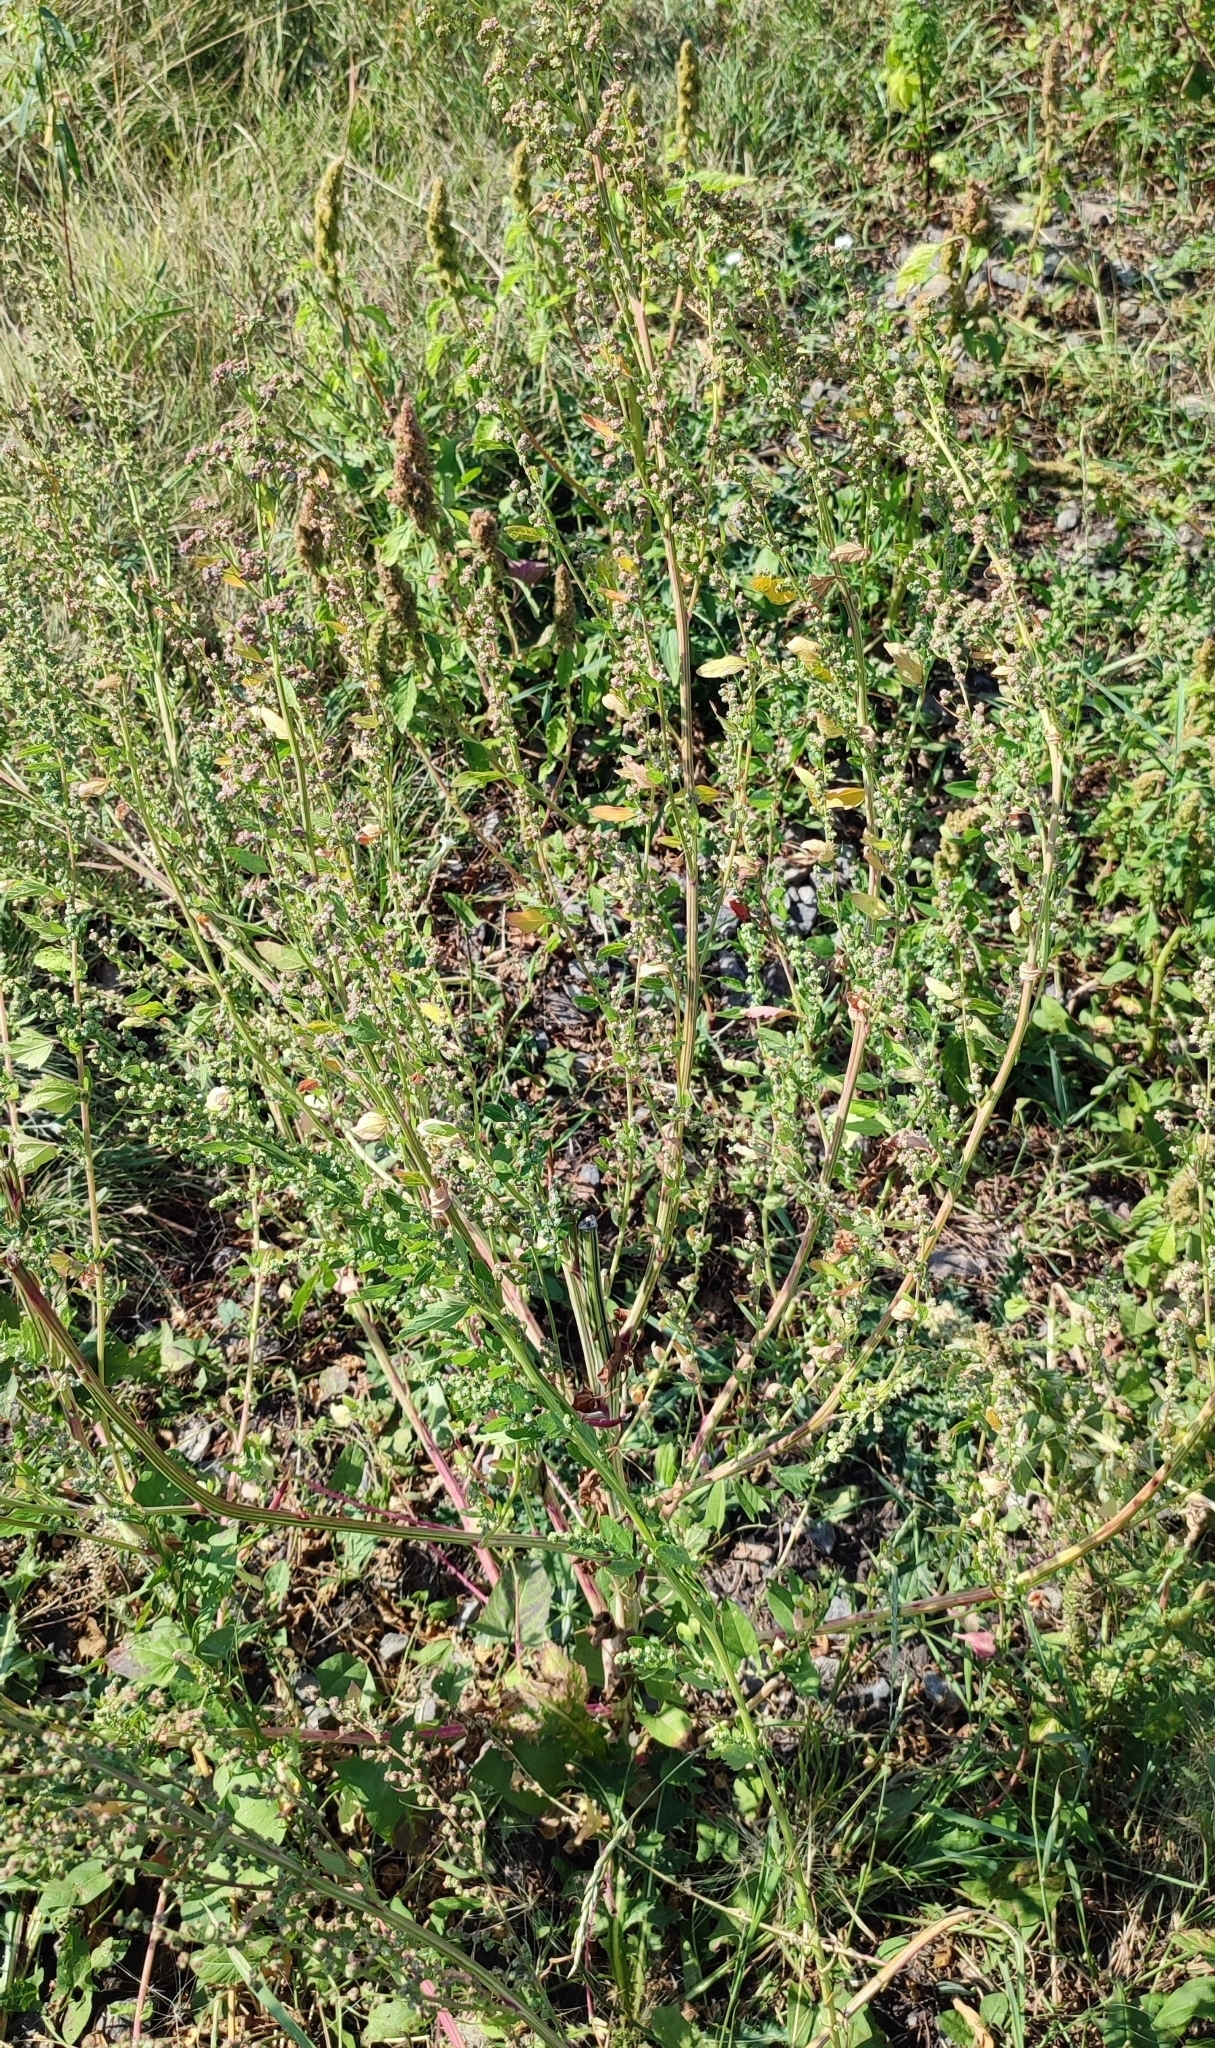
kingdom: Plantae
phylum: Tracheophyta
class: Magnoliopsida
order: Caryophyllales
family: Amaranthaceae
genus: Chenopodium
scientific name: Chenopodium album
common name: Fat-hen
